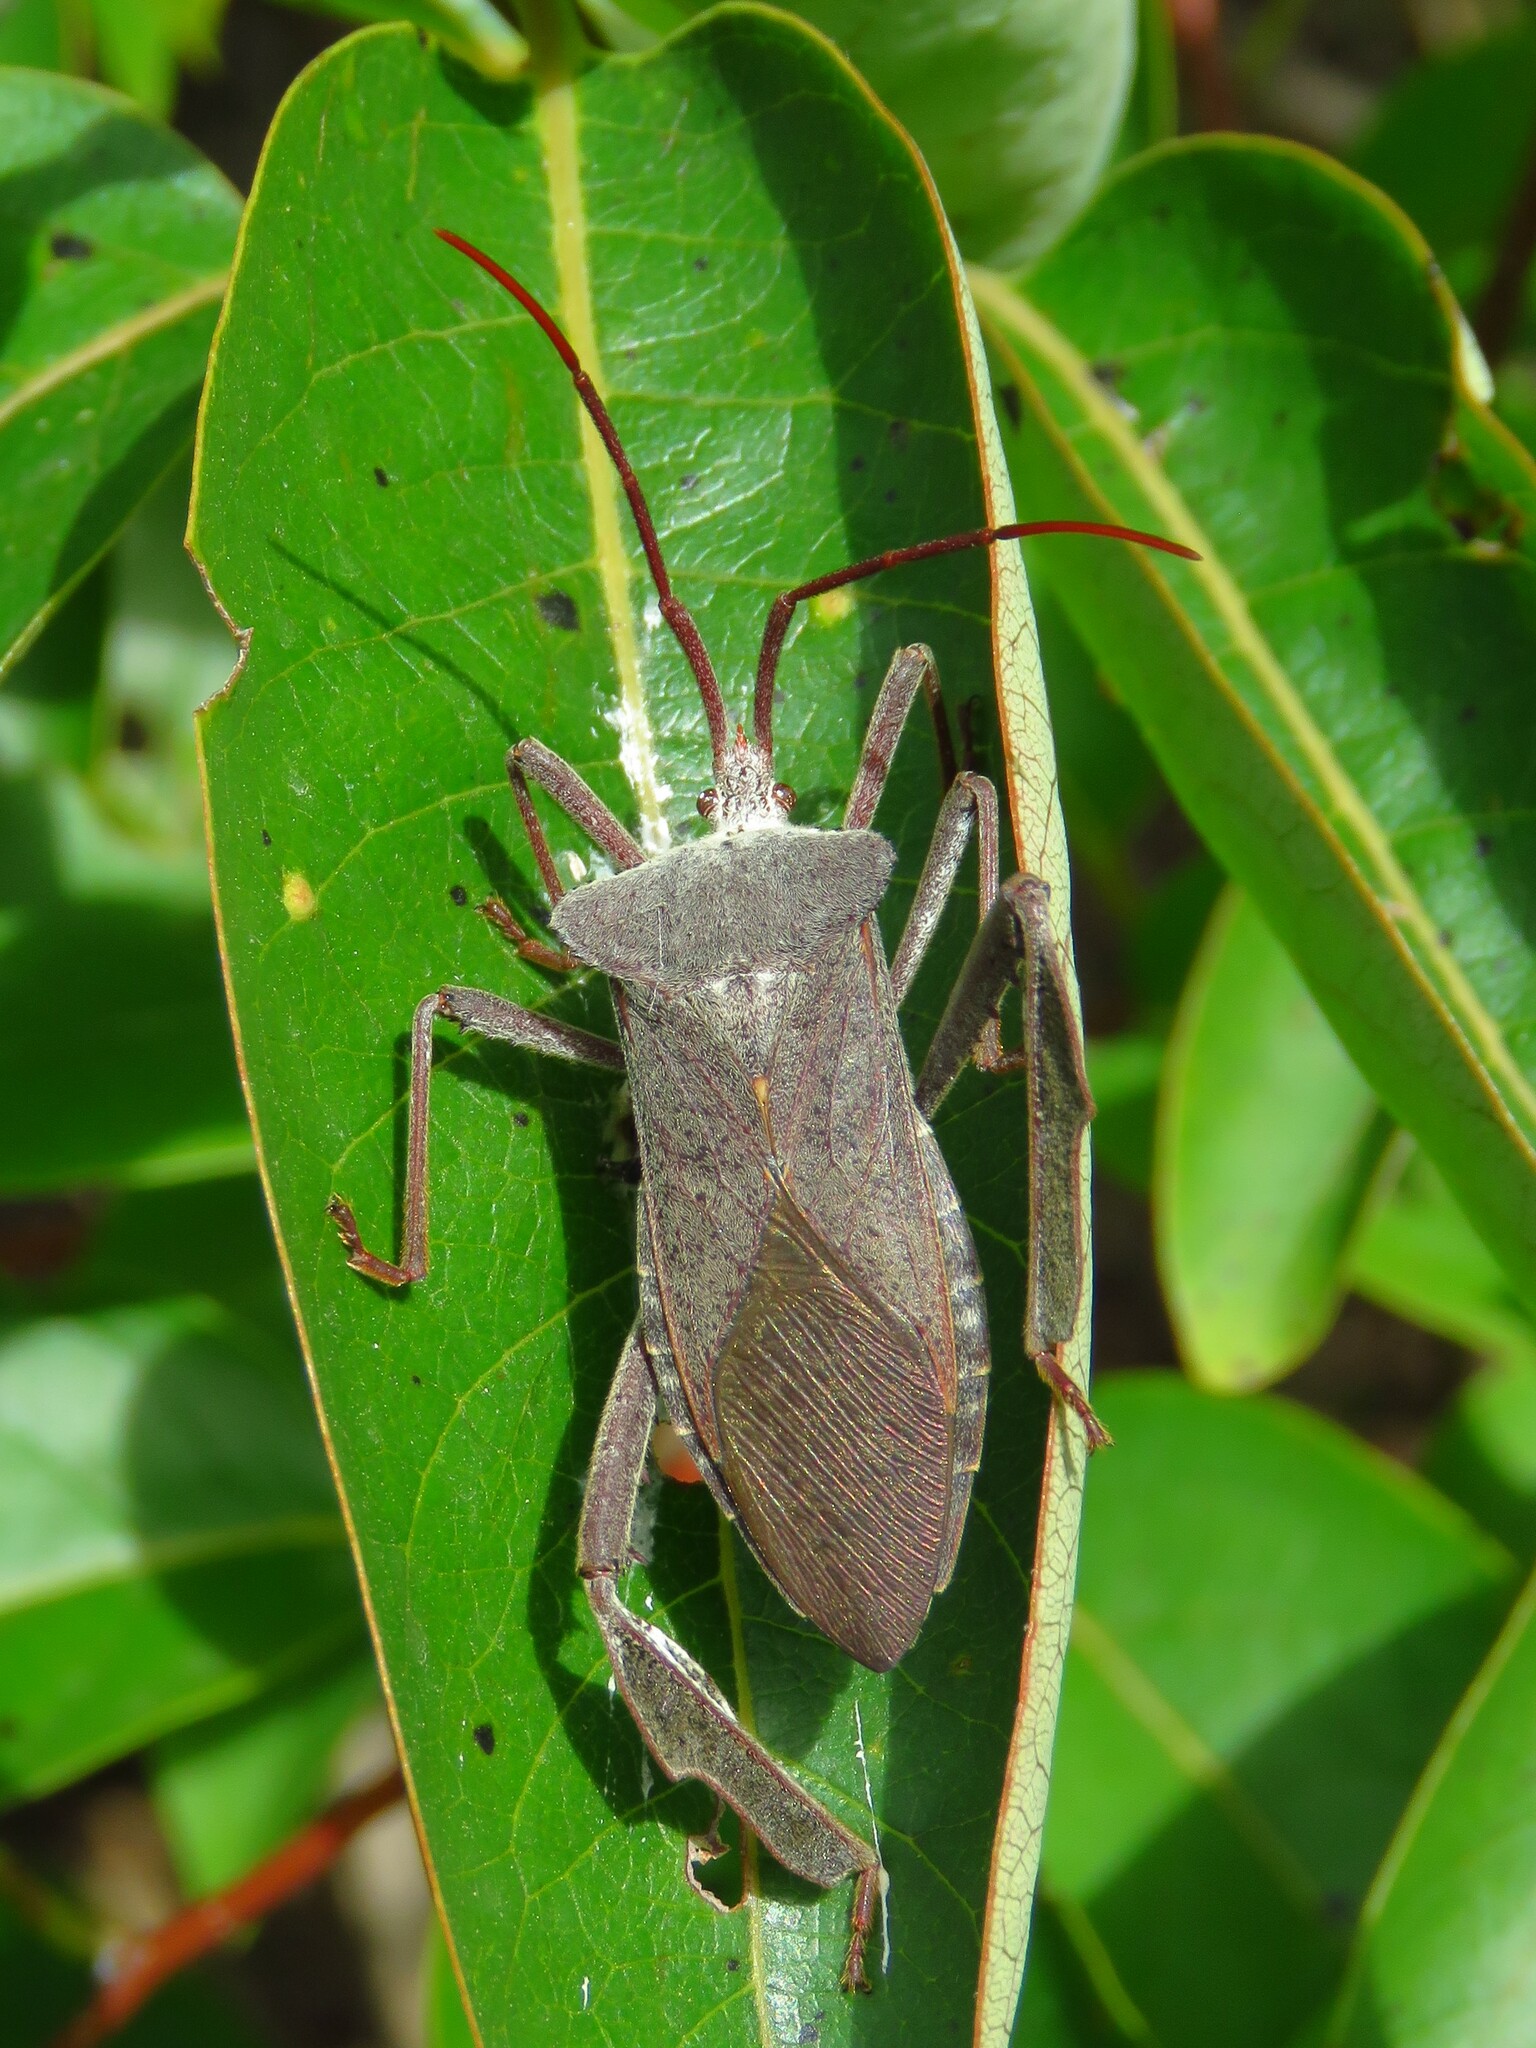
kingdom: Animalia
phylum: Arthropoda
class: Insecta
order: Hemiptera
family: Coreidae
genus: Acanthocephala
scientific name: Acanthocephala declivis
